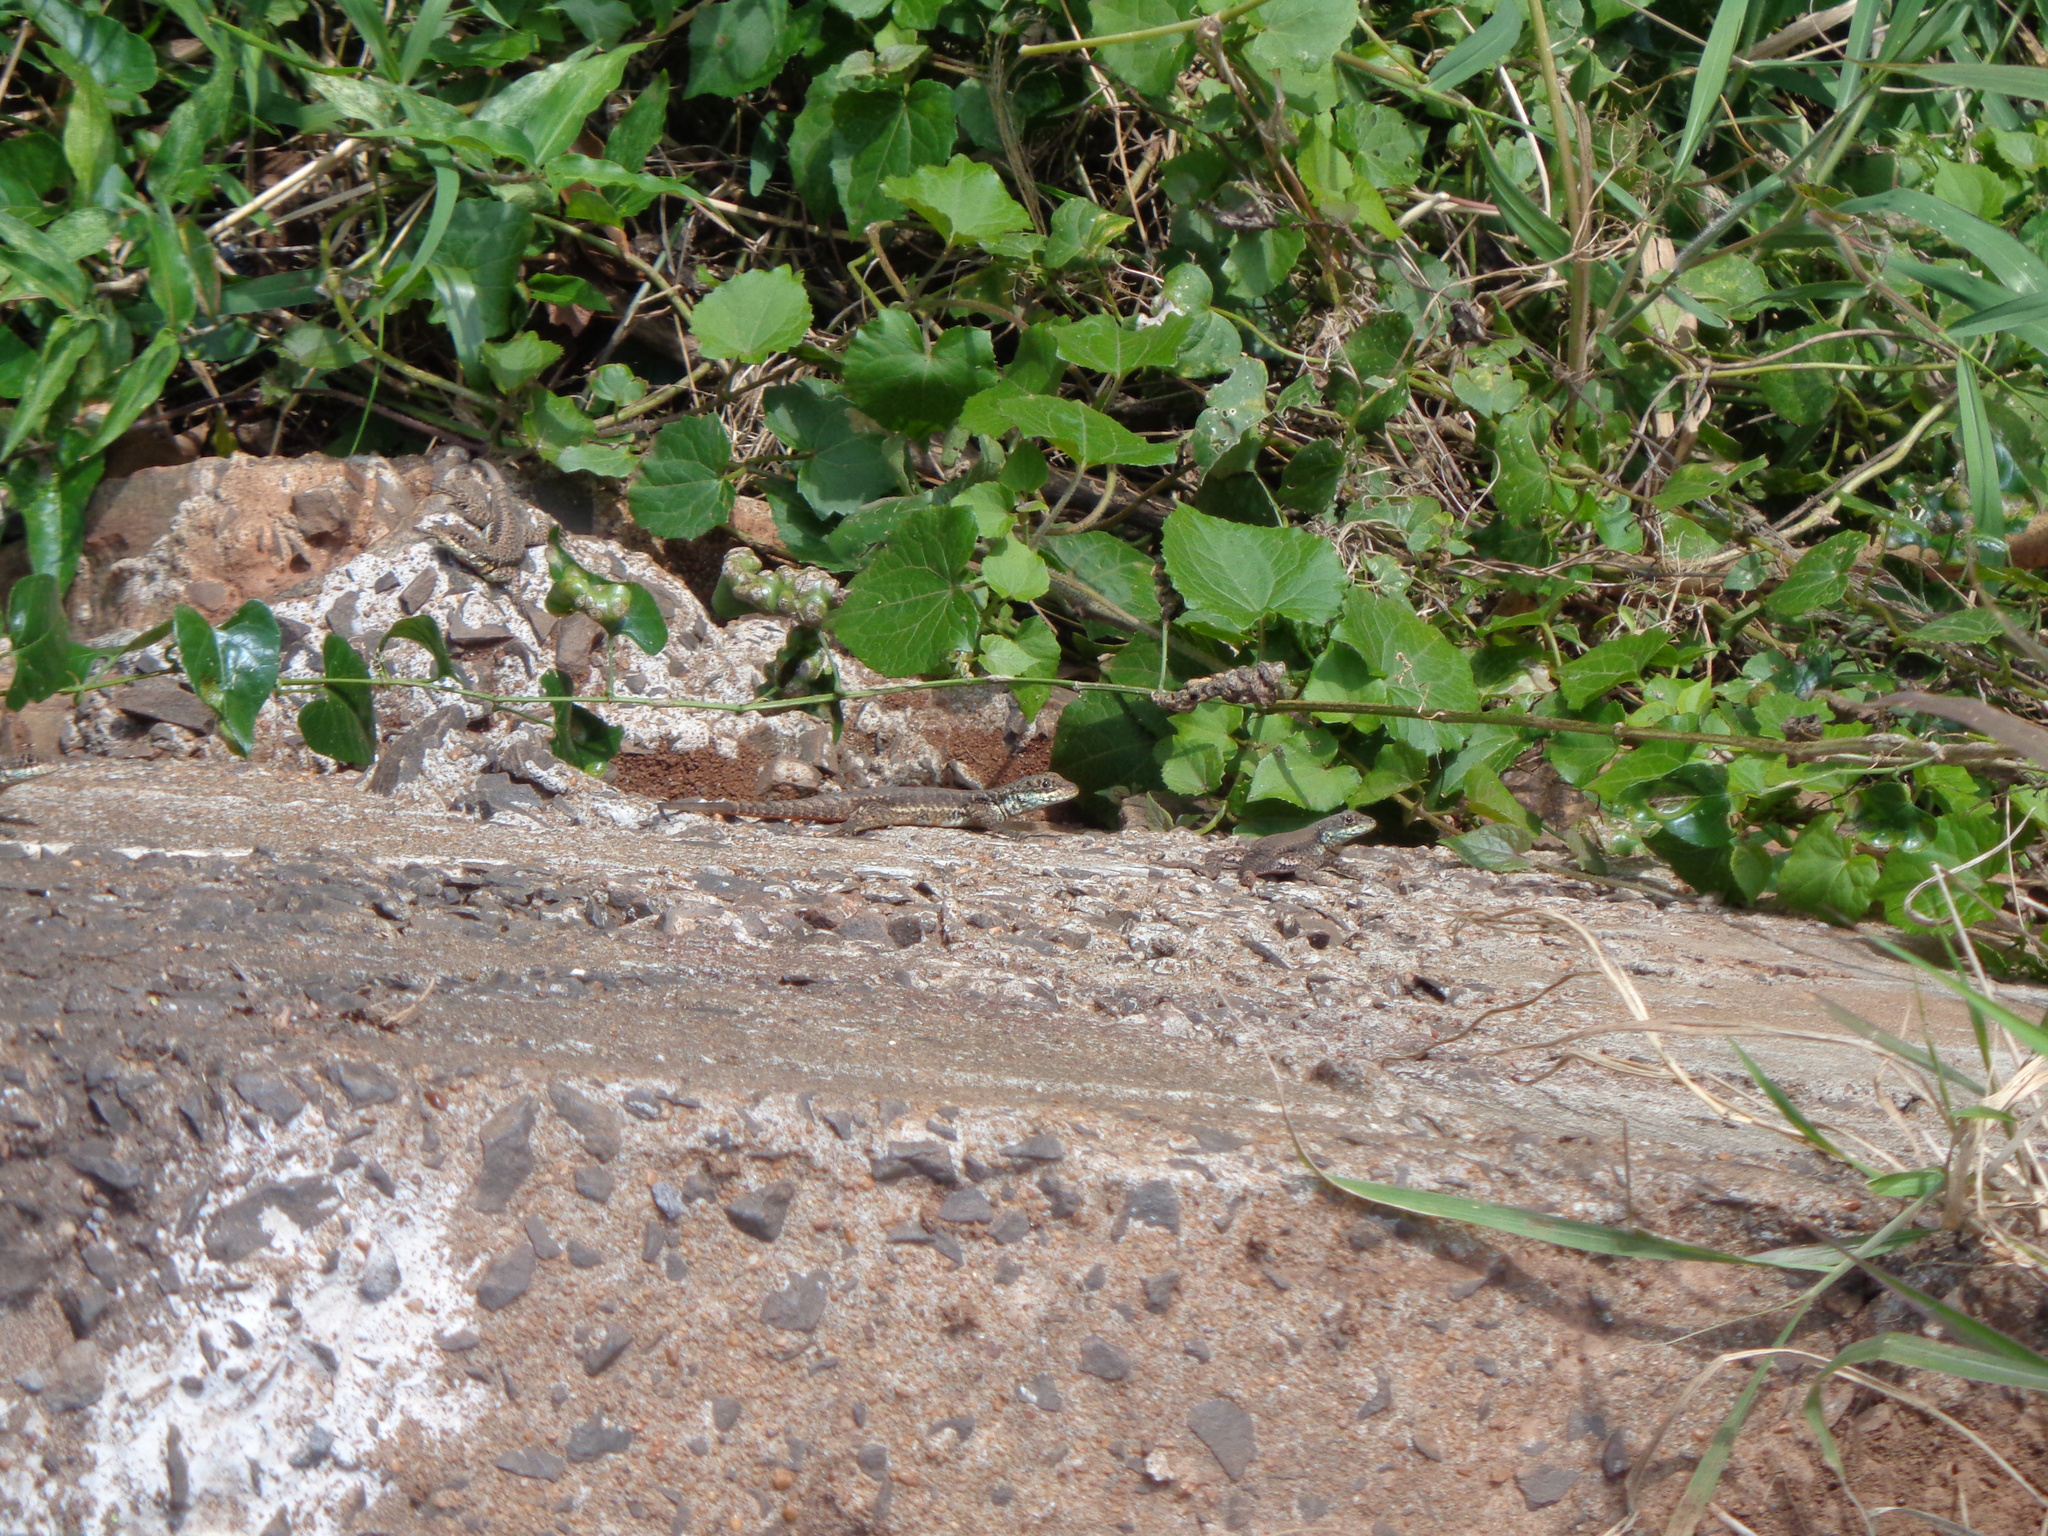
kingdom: Animalia
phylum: Chordata
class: Squamata
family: Tropiduridae
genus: Tropidurus
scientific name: Tropidurus catalanensis
